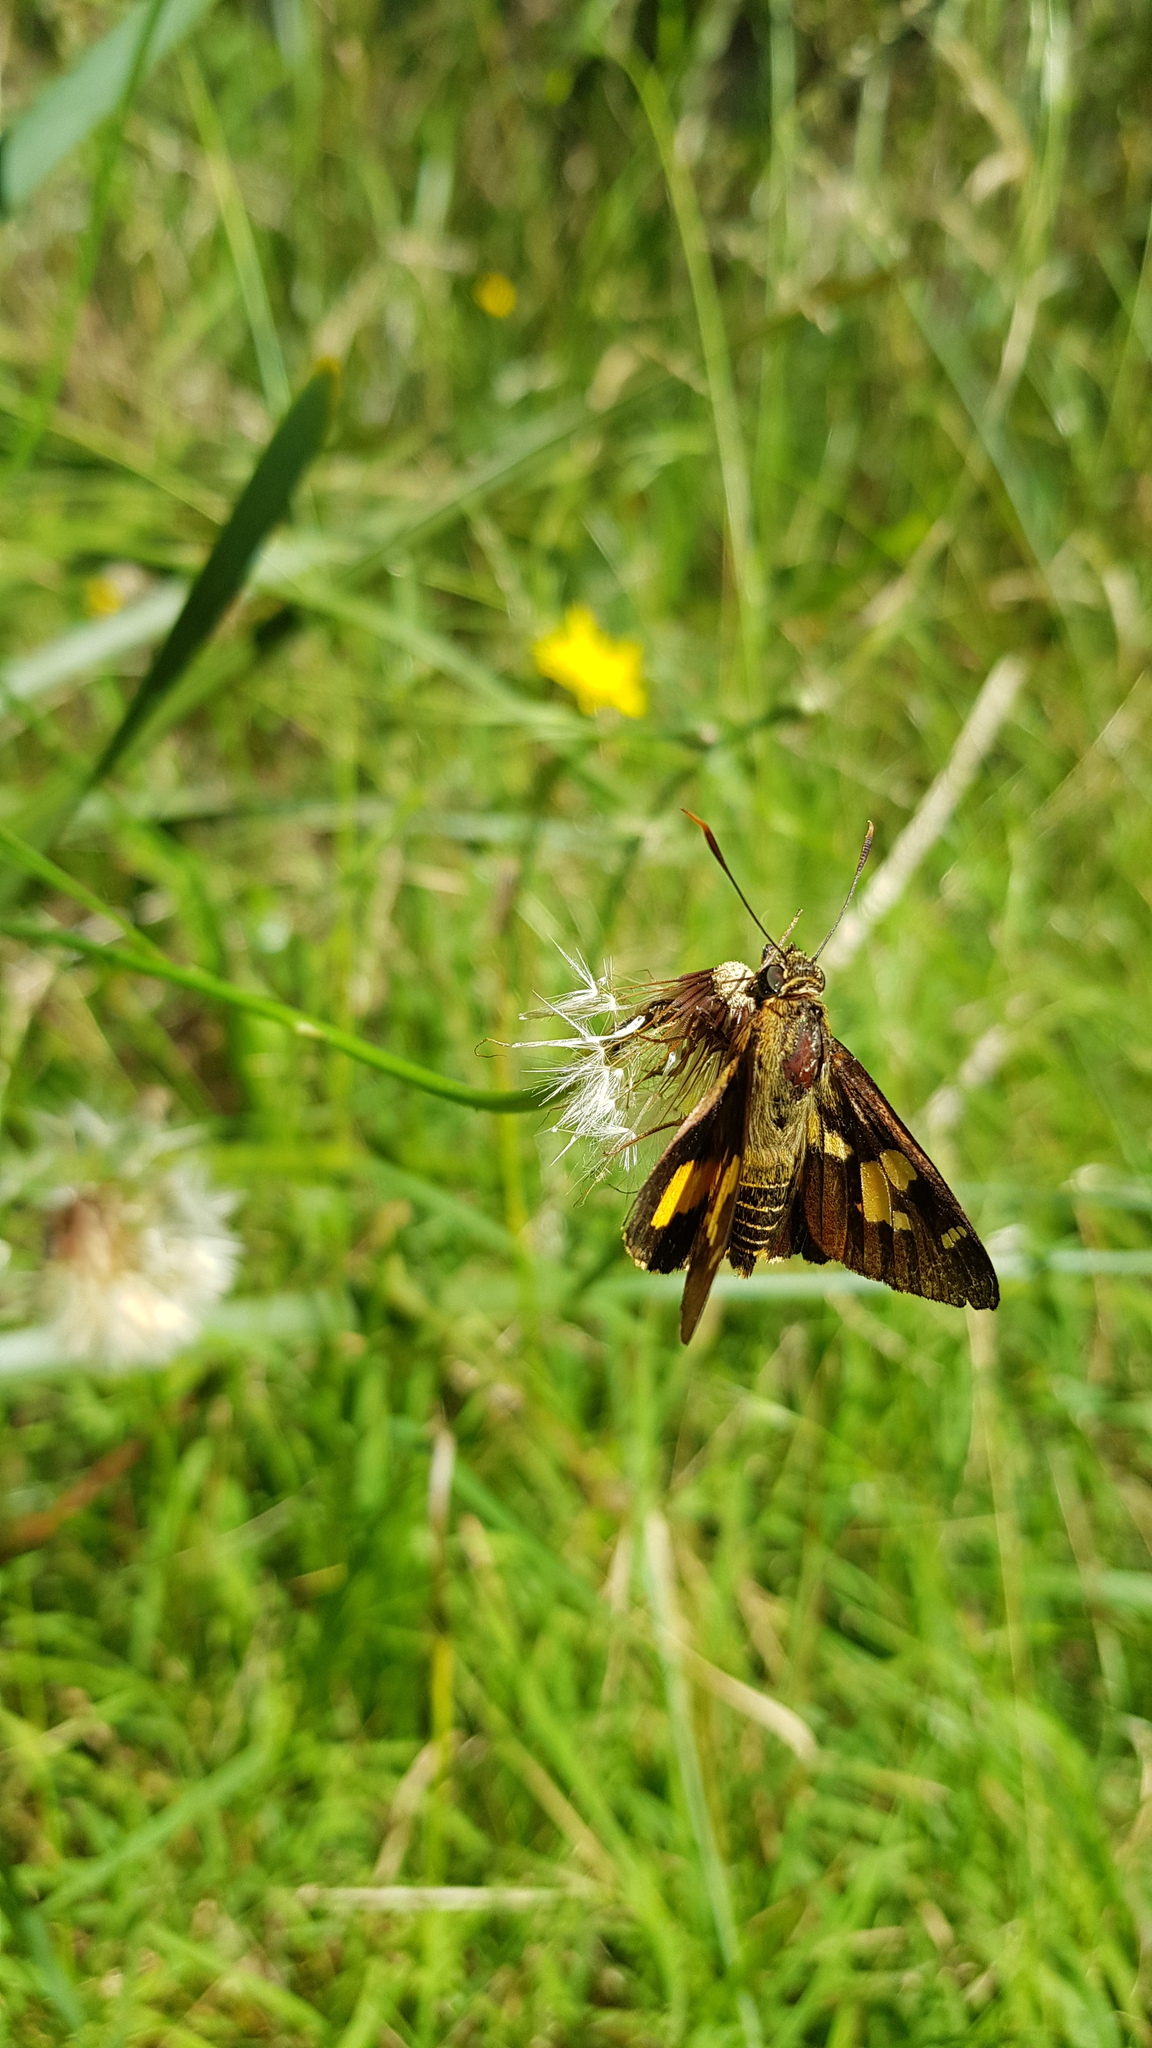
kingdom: Animalia
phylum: Arthropoda
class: Insecta
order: Lepidoptera
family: Hesperiidae
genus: Trapezites
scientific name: Trapezites symmomus
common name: Splendid ochre
